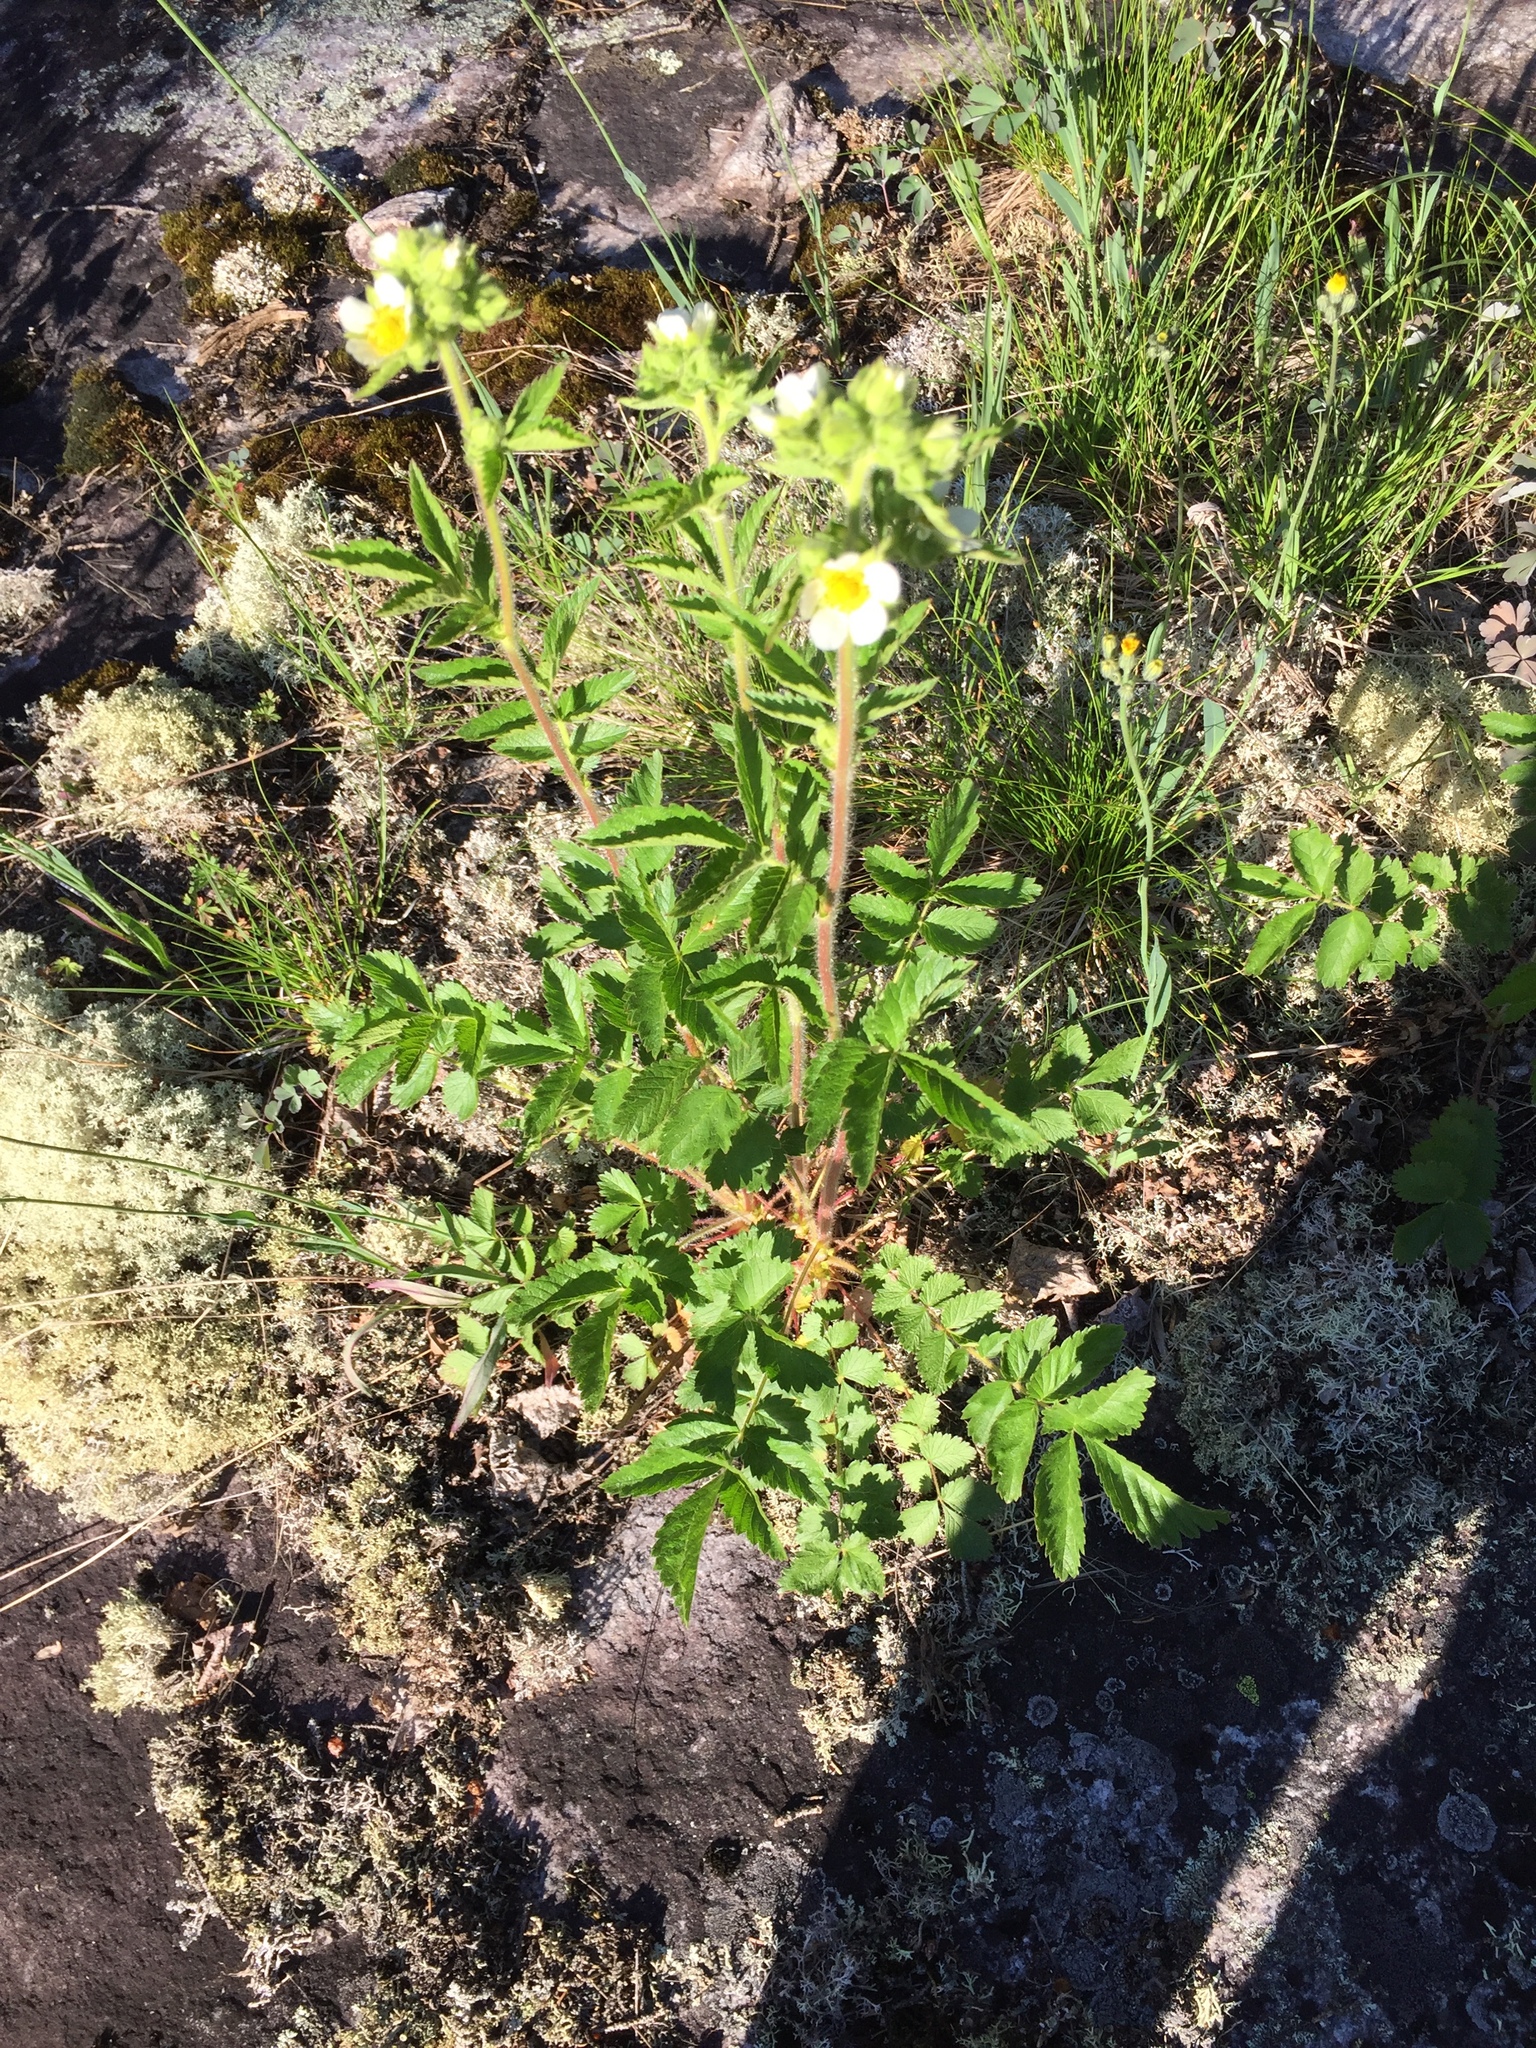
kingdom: Plantae
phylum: Tracheophyta
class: Magnoliopsida
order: Rosales
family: Rosaceae
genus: Drymocallis
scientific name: Drymocallis arguta
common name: Tall cinquefoil
